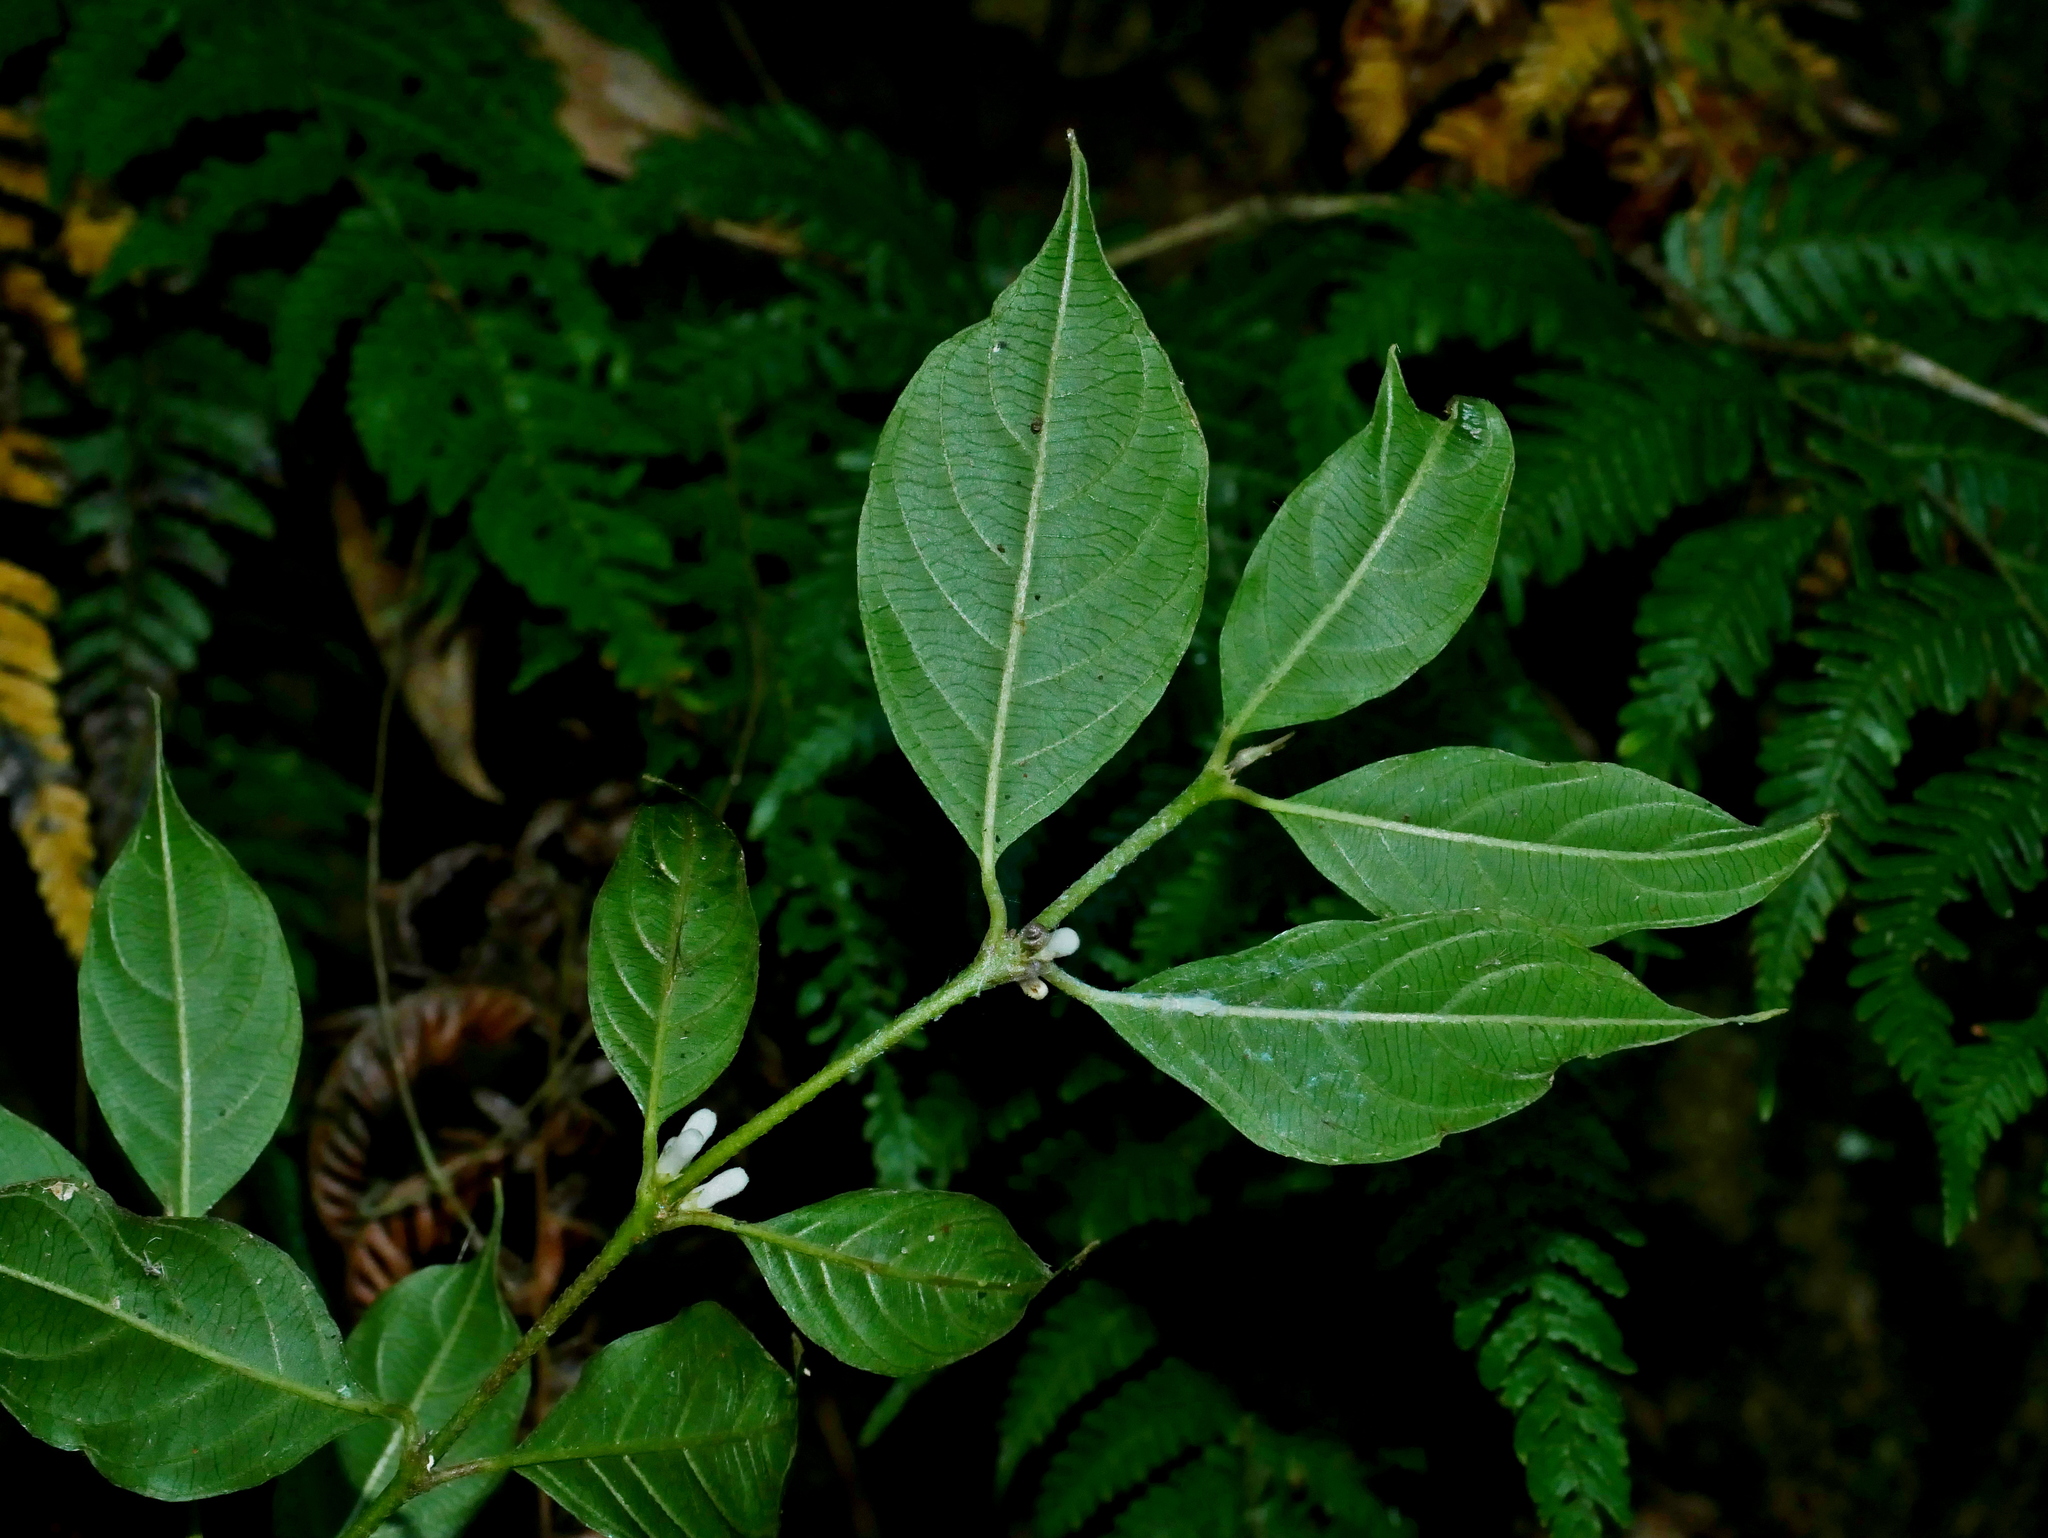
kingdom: Plantae
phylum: Tracheophyta
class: Magnoliopsida
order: Gentianales
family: Rubiaceae
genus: Lasianthus
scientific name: Lasianthus fordii
